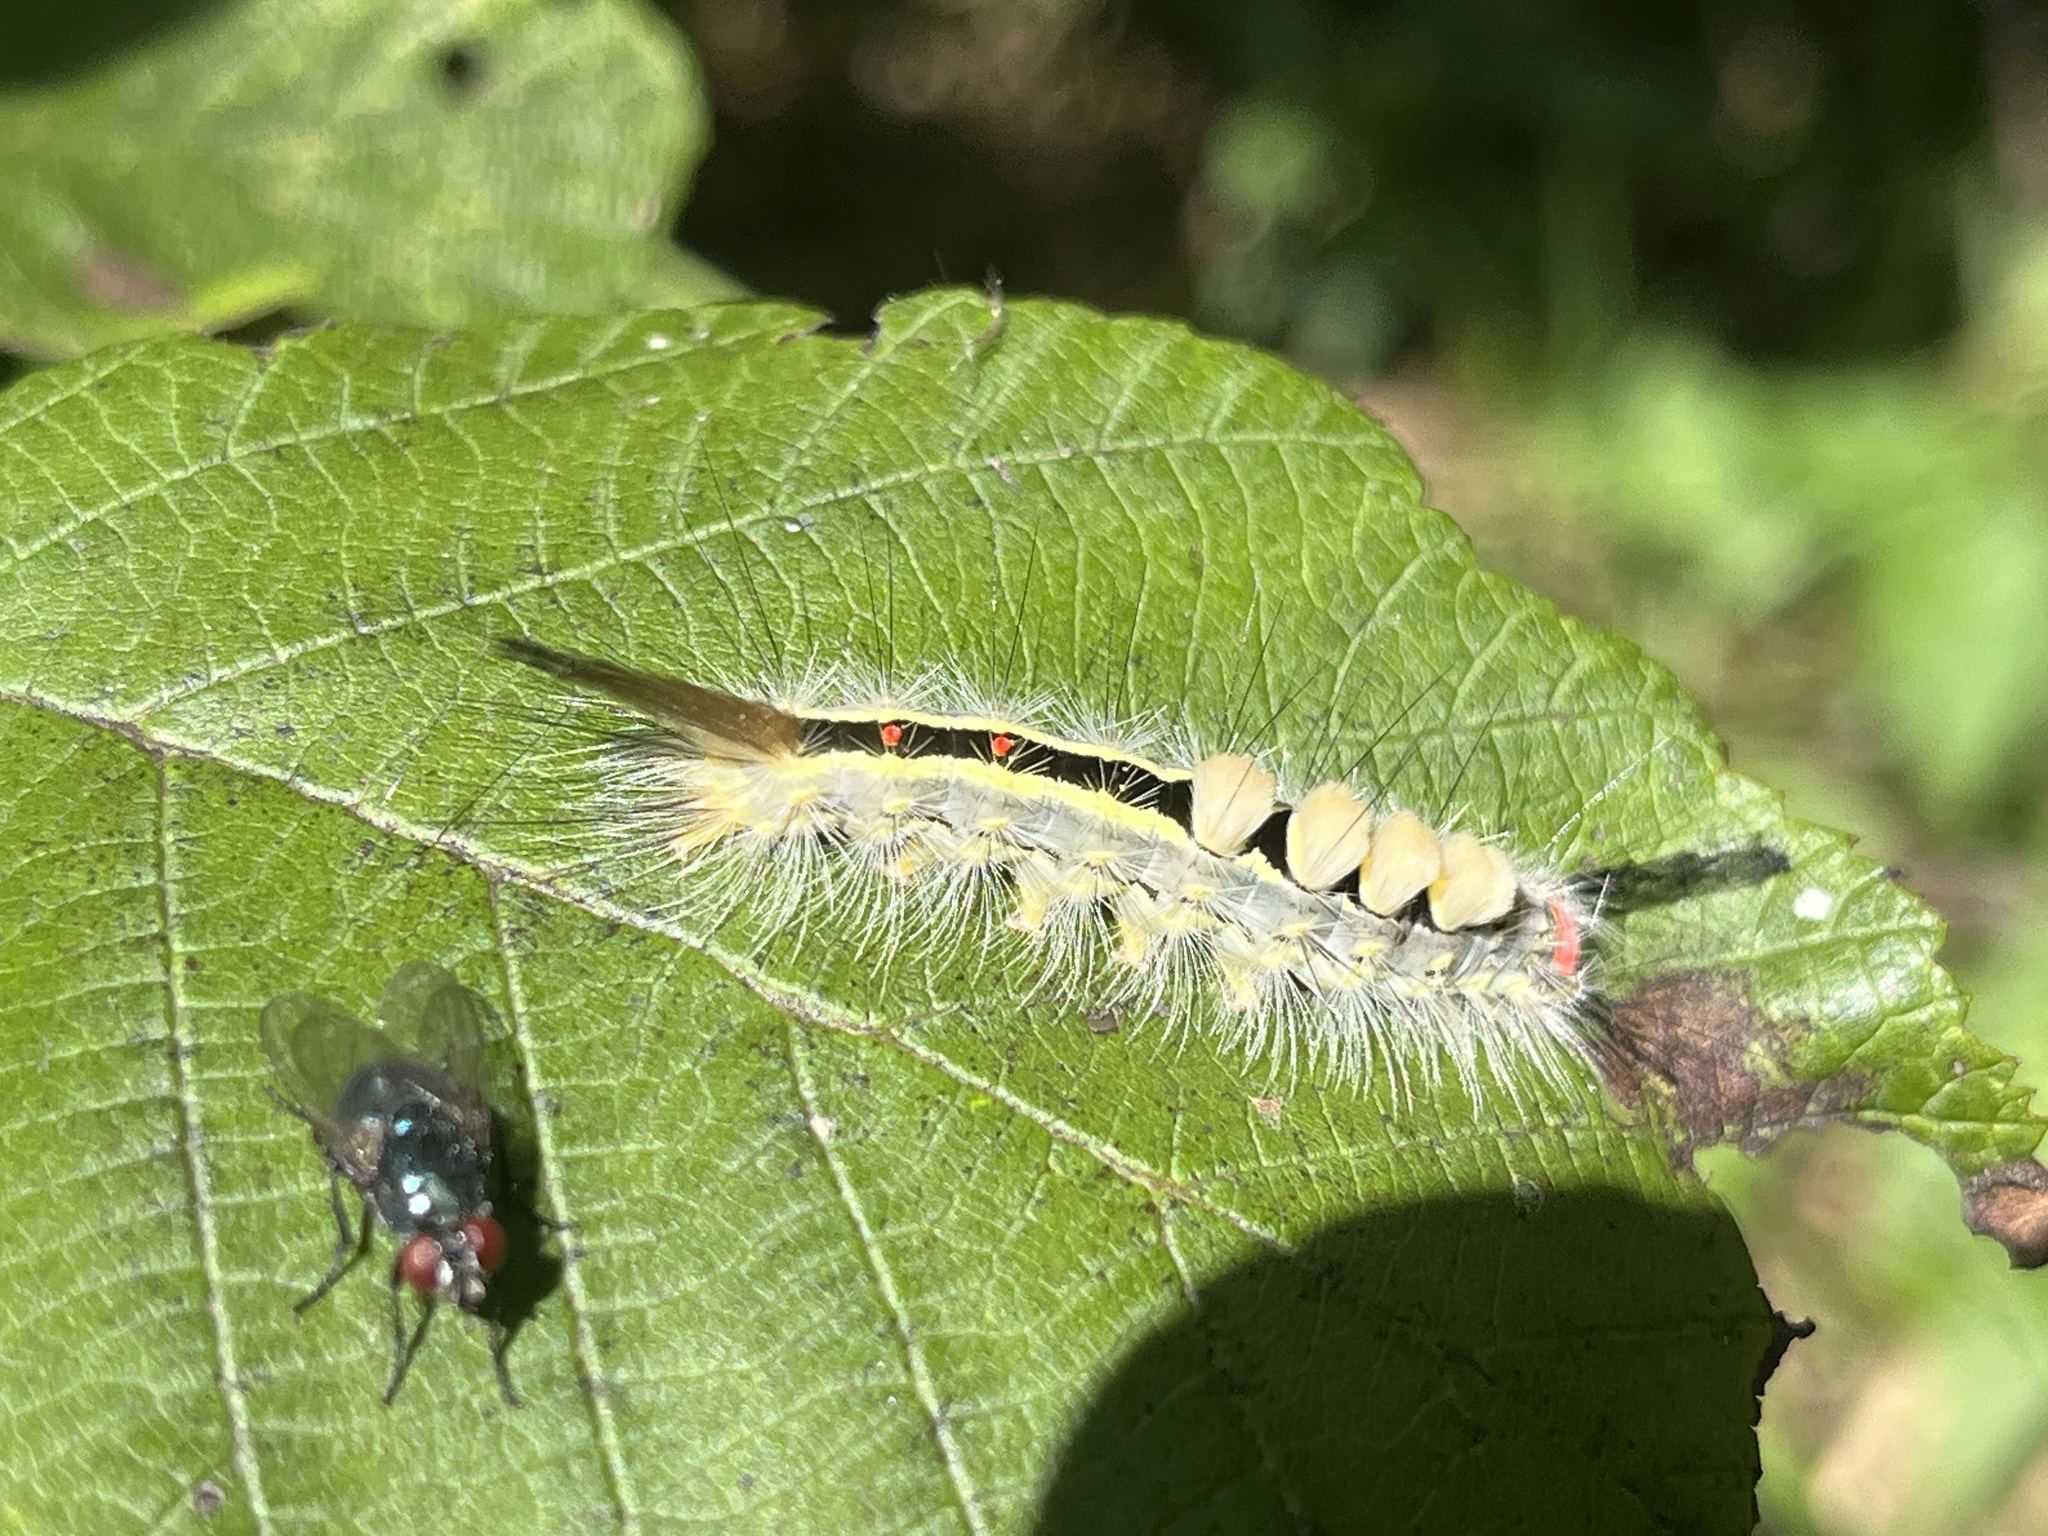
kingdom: Animalia
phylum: Arthropoda
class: Insecta
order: Lepidoptera
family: Erebidae
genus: Orgyia
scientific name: Orgyia leucostigma
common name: White-marked tussock moth
